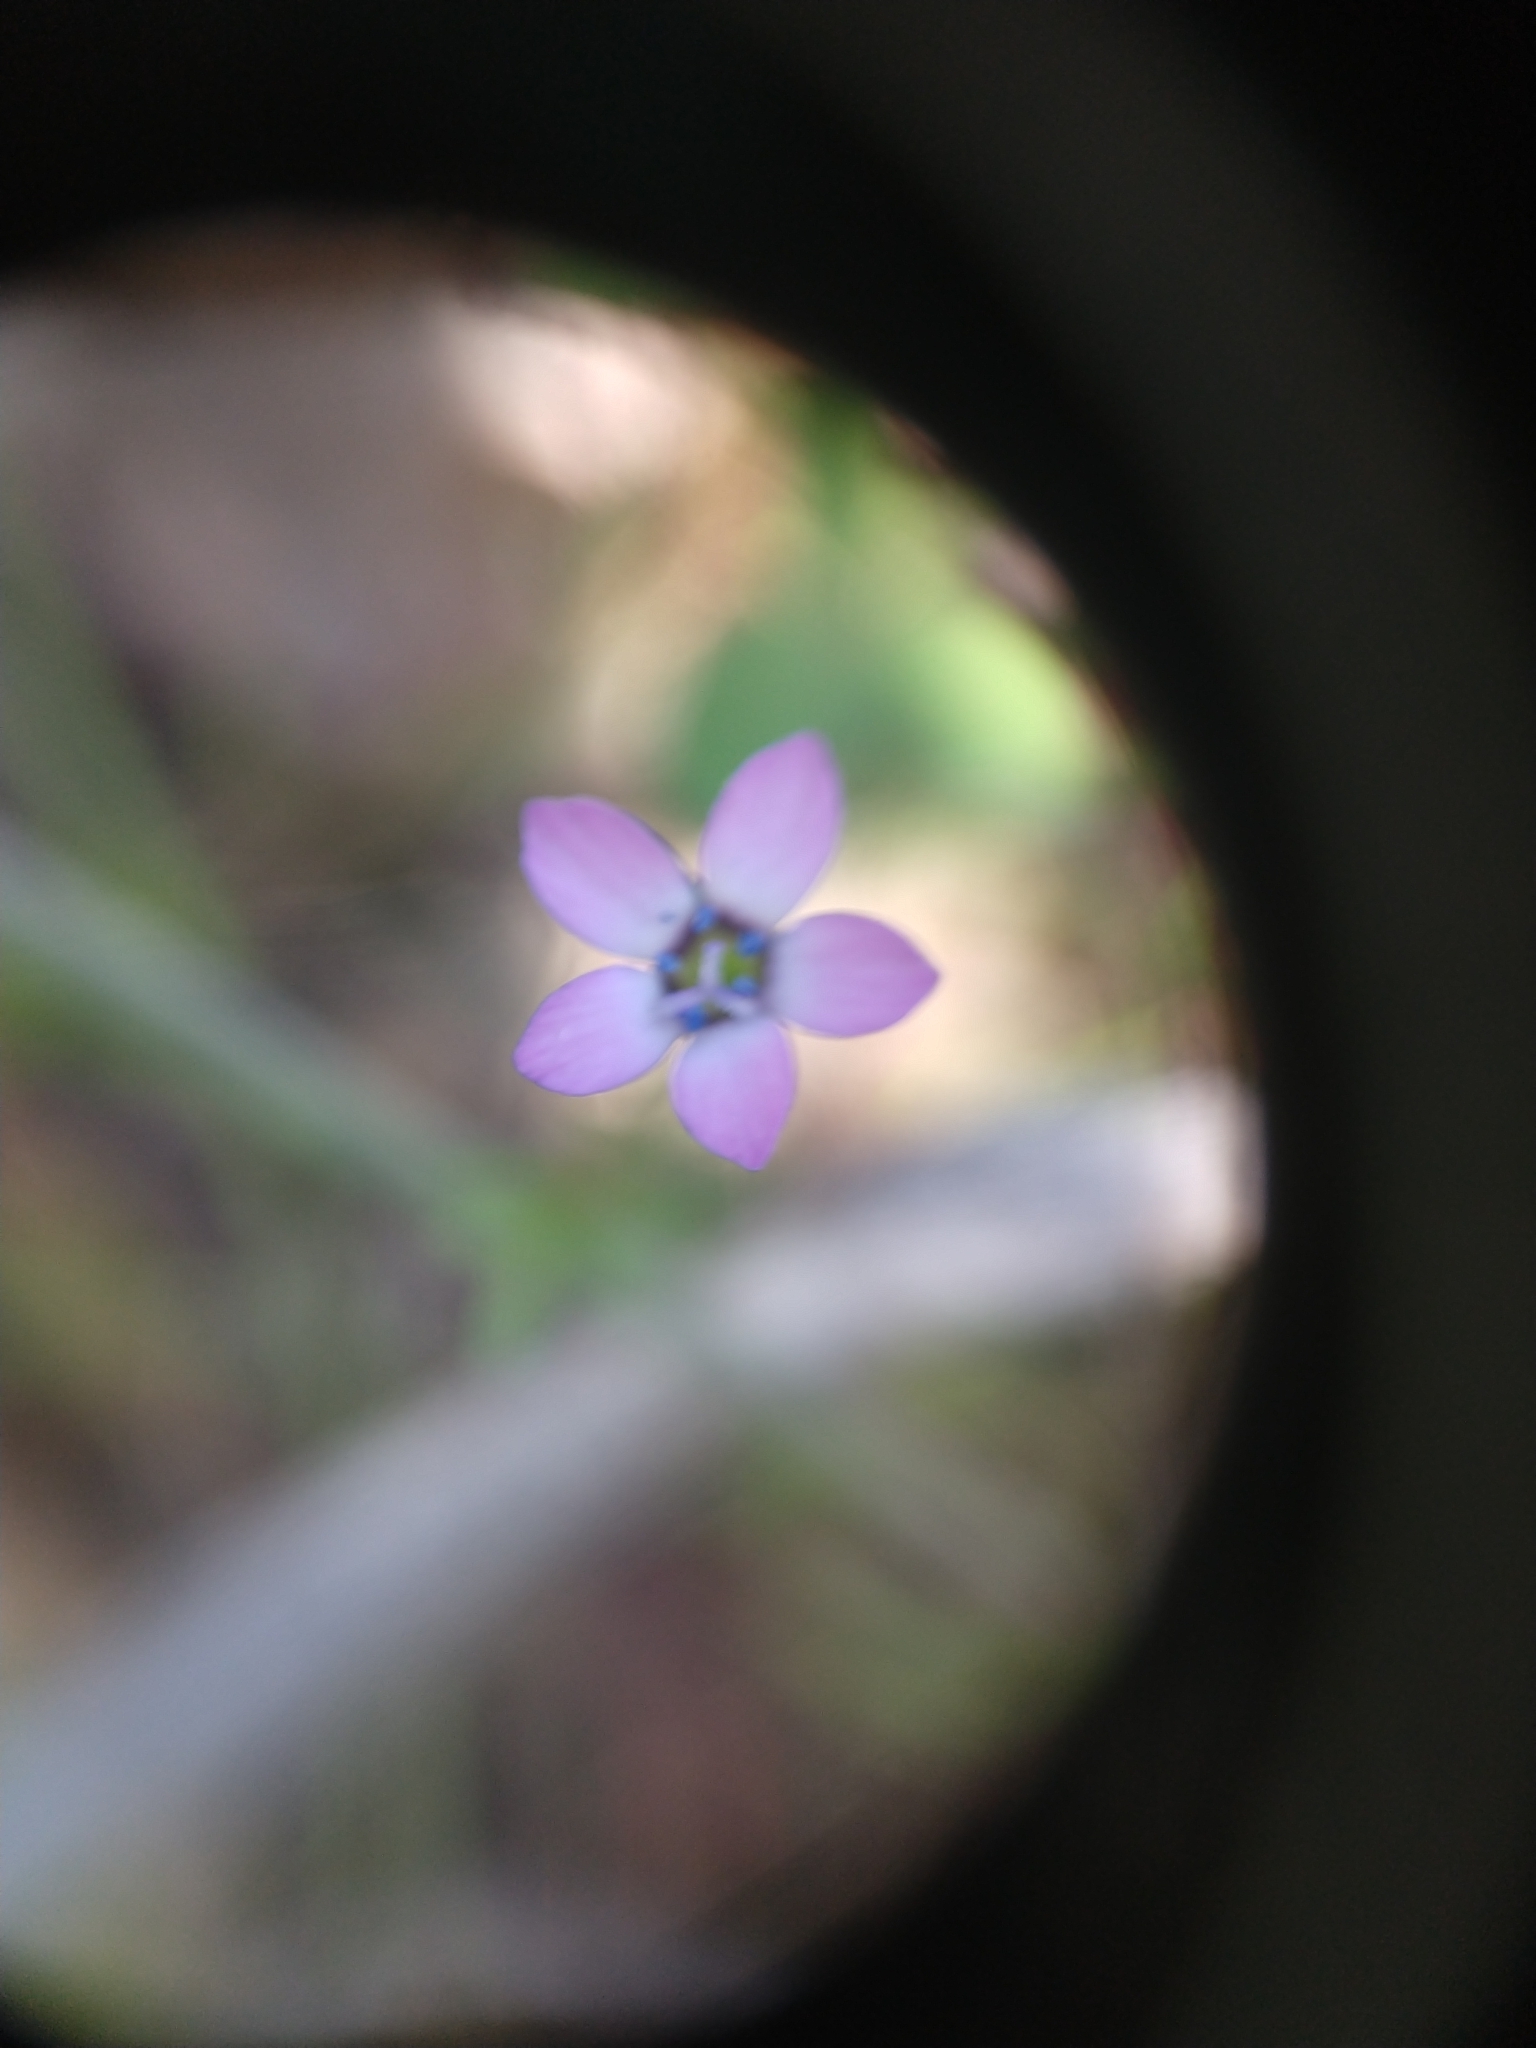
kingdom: Plantae
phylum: Tracheophyta
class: Magnoliopsida
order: Ericales
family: Polemoniaceae
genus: Gilia
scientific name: Gilia clivorum
